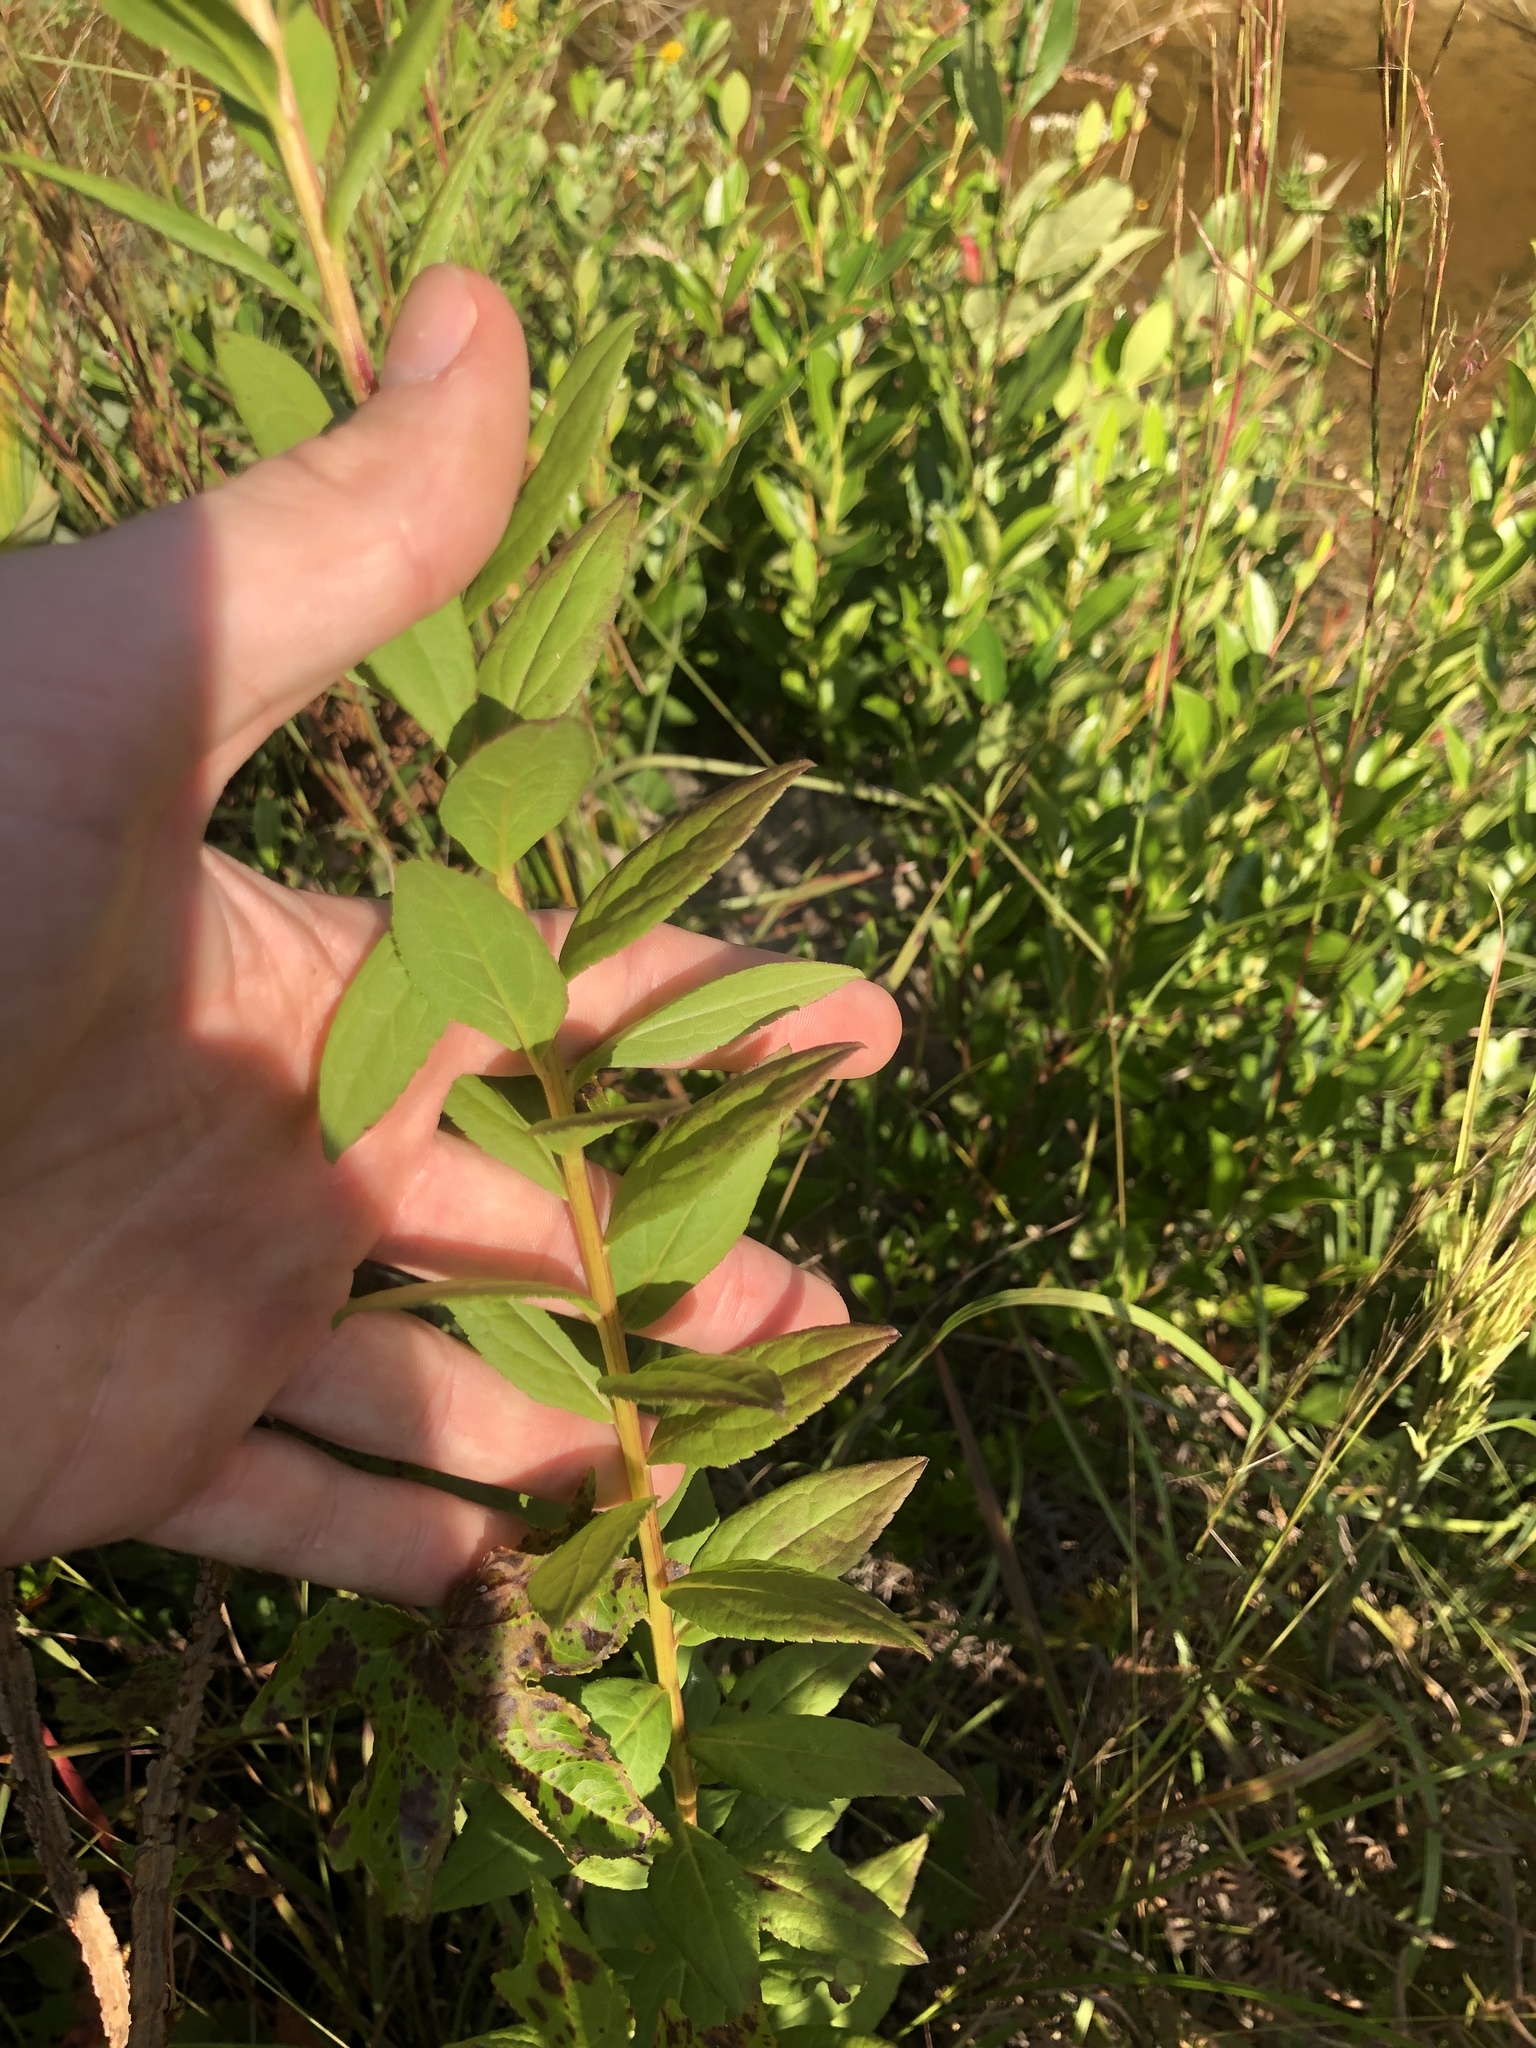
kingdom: Plantae
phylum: Tracheophyta
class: Magnoliopsida
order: Asterales
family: Asteraceae
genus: Solidago
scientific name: Solidago latissimifolia
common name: Elliott's goldenrod
